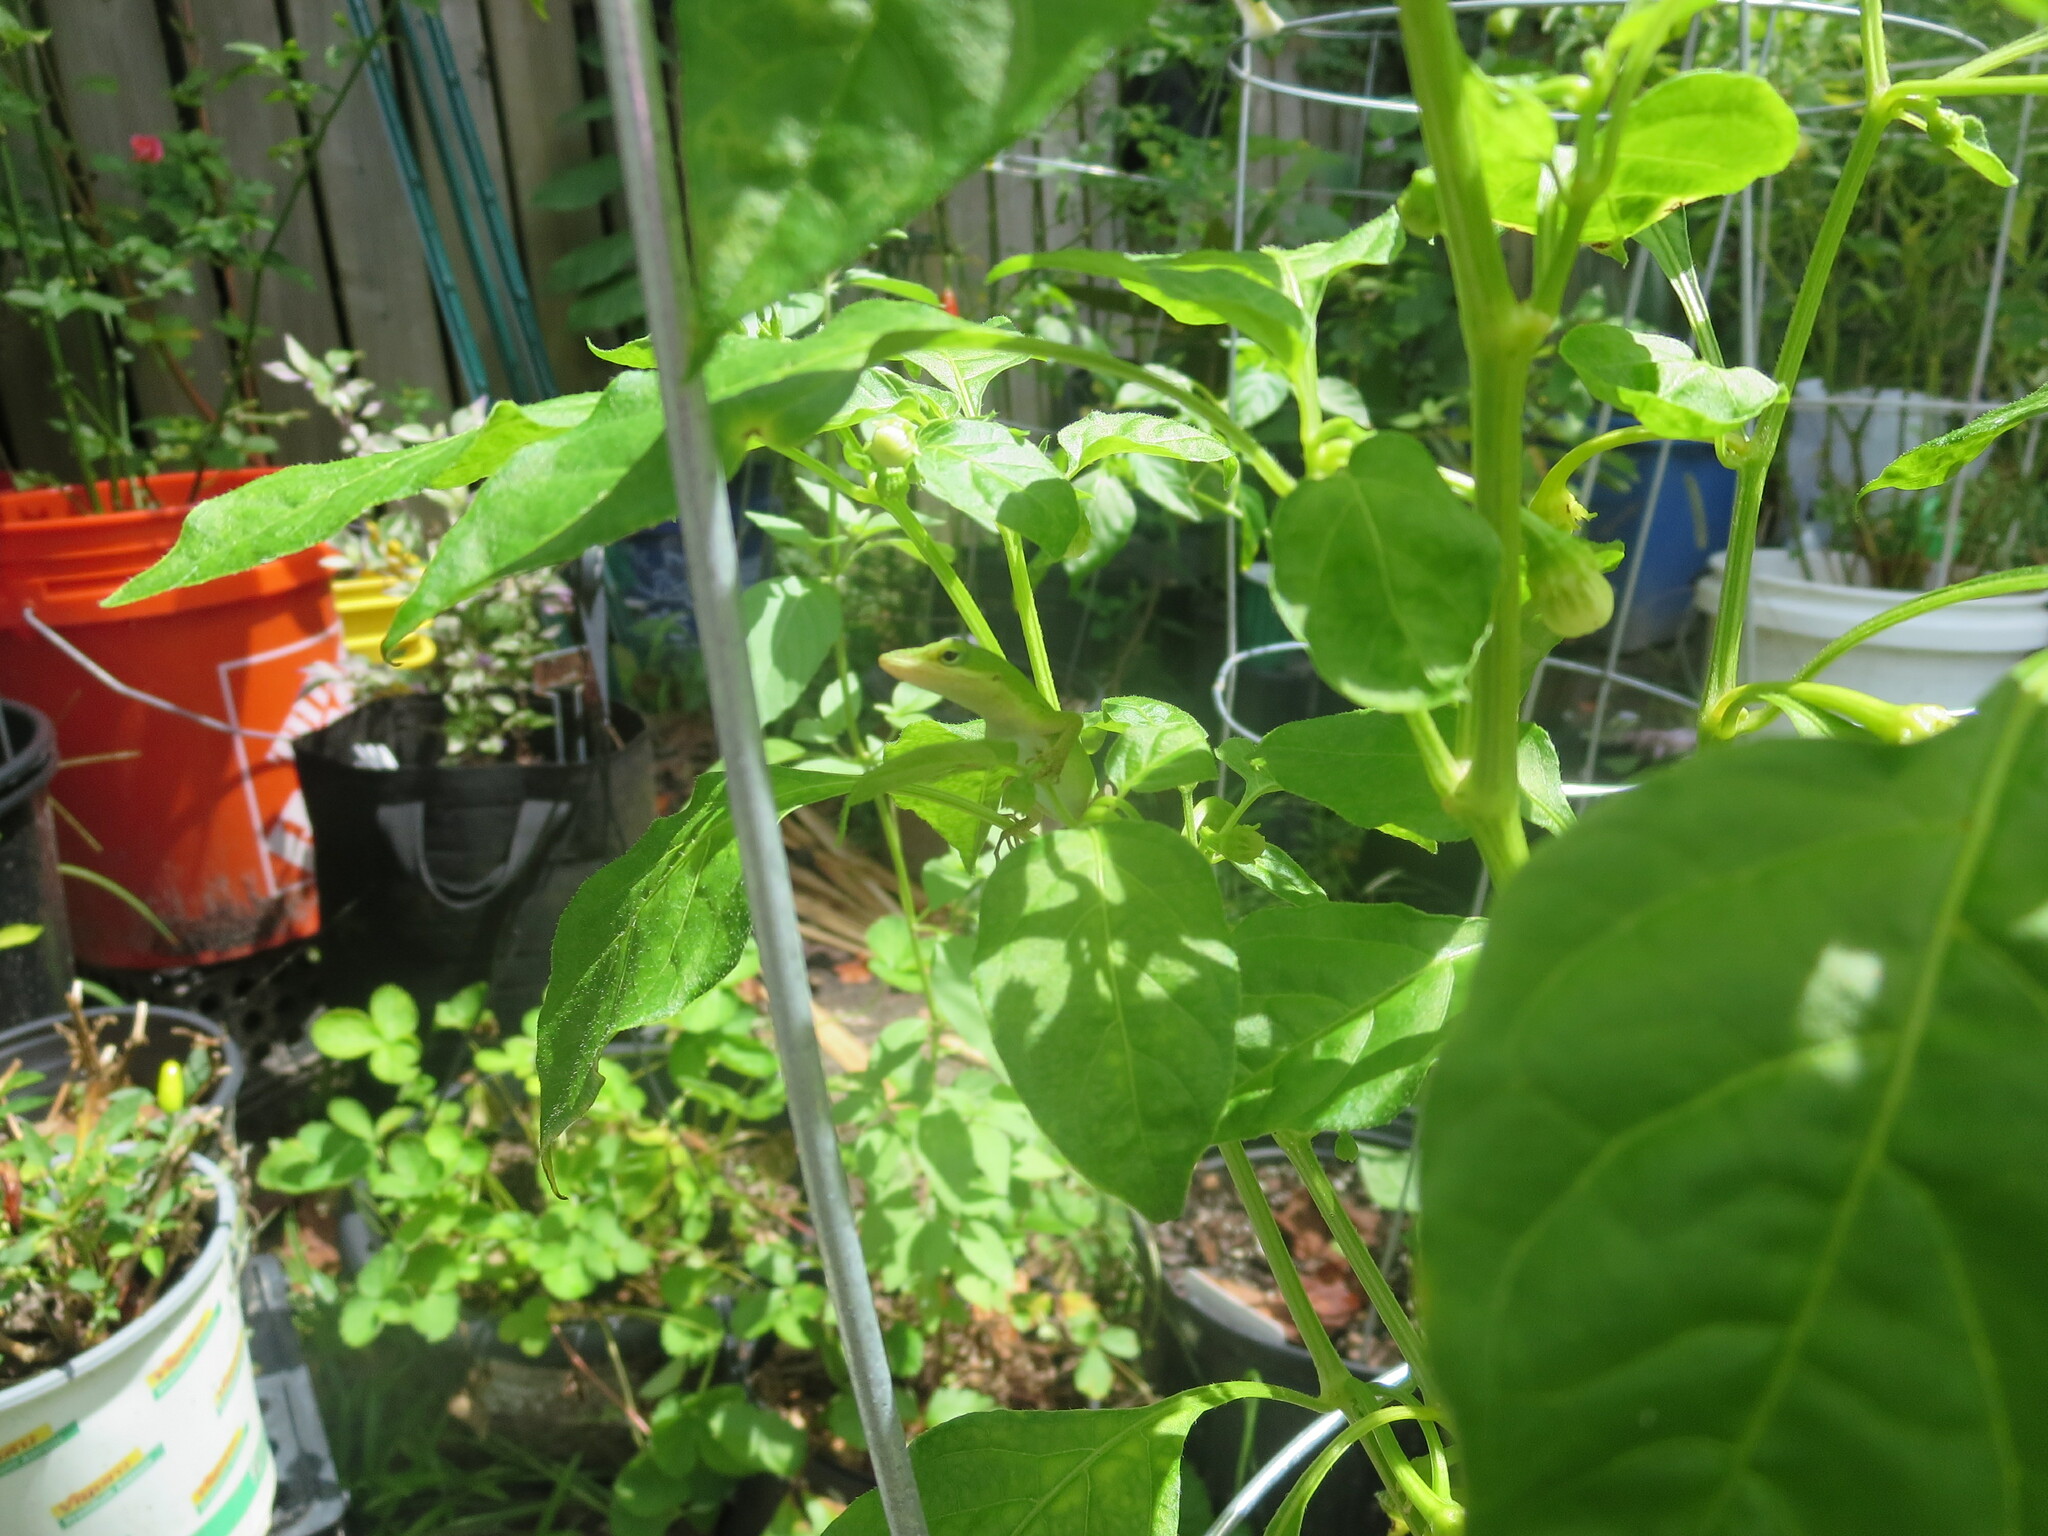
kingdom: Animalia
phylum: Chordata
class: Squamata
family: Dactyloidae
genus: Anolis
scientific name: Anolis carolinensis
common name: Green anole
